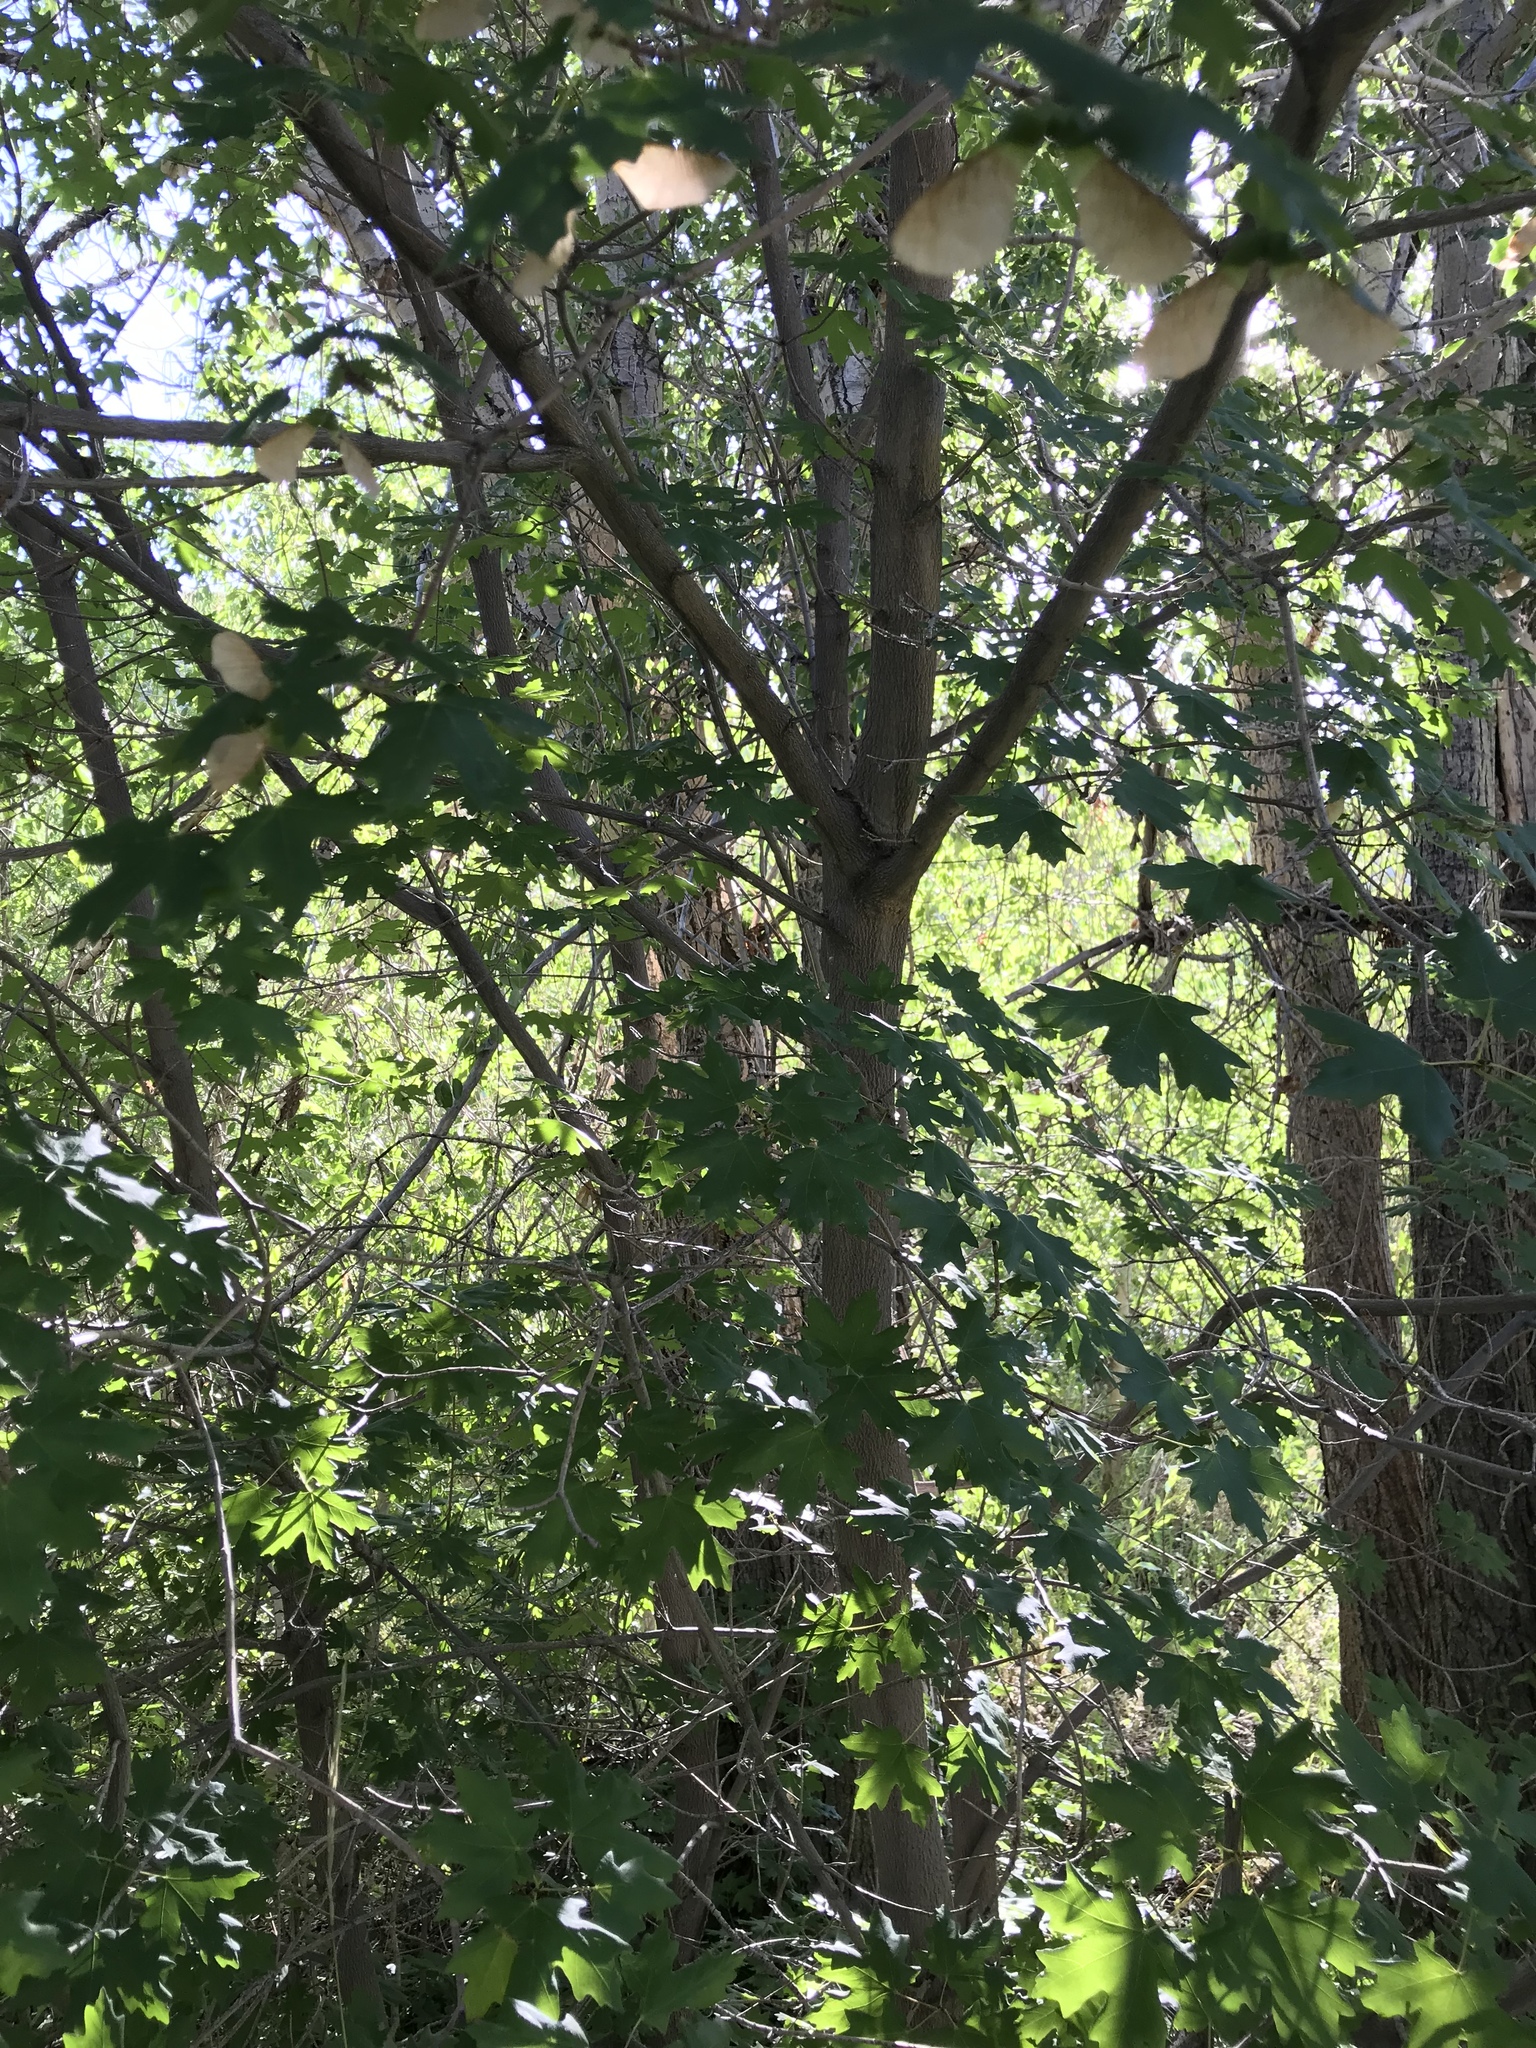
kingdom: Plantae
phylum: Tracheophyta
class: Magnoliopsida
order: Sapindales
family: Sapindaceae
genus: Acer
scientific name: Acer grandidentatum
